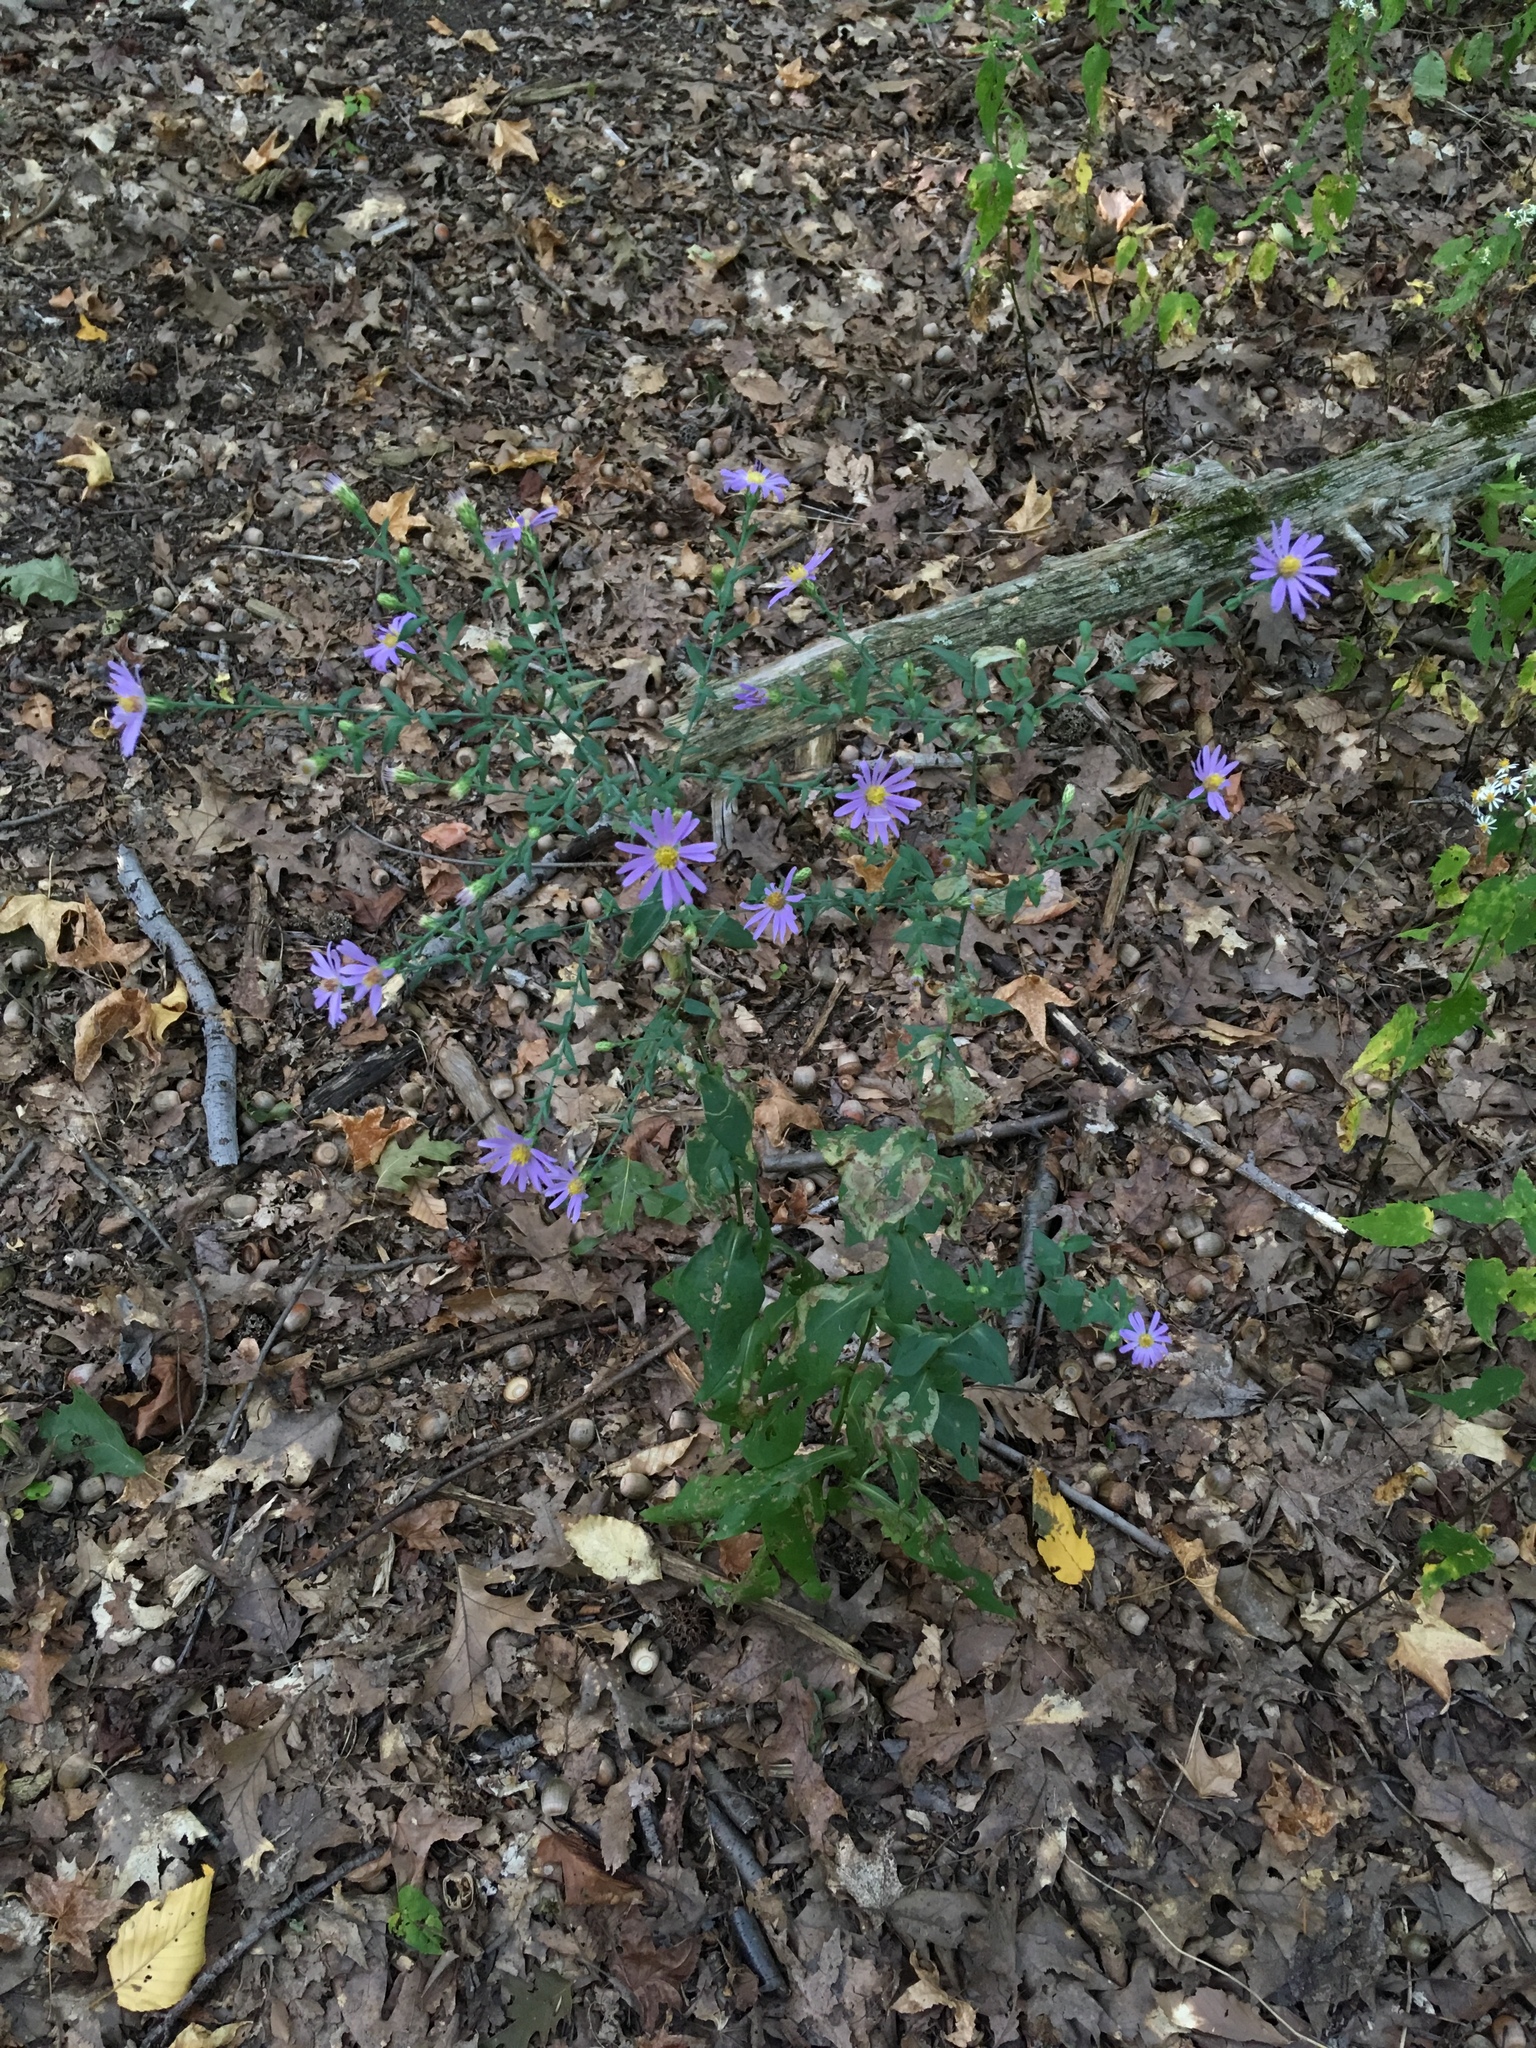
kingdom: Plantae
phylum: Tracheophyta
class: Magnoliopsida
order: Asterales
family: Asteraceae
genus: Symphyotrichum
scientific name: Symphyotrichum laeve
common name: Glaucous aster
